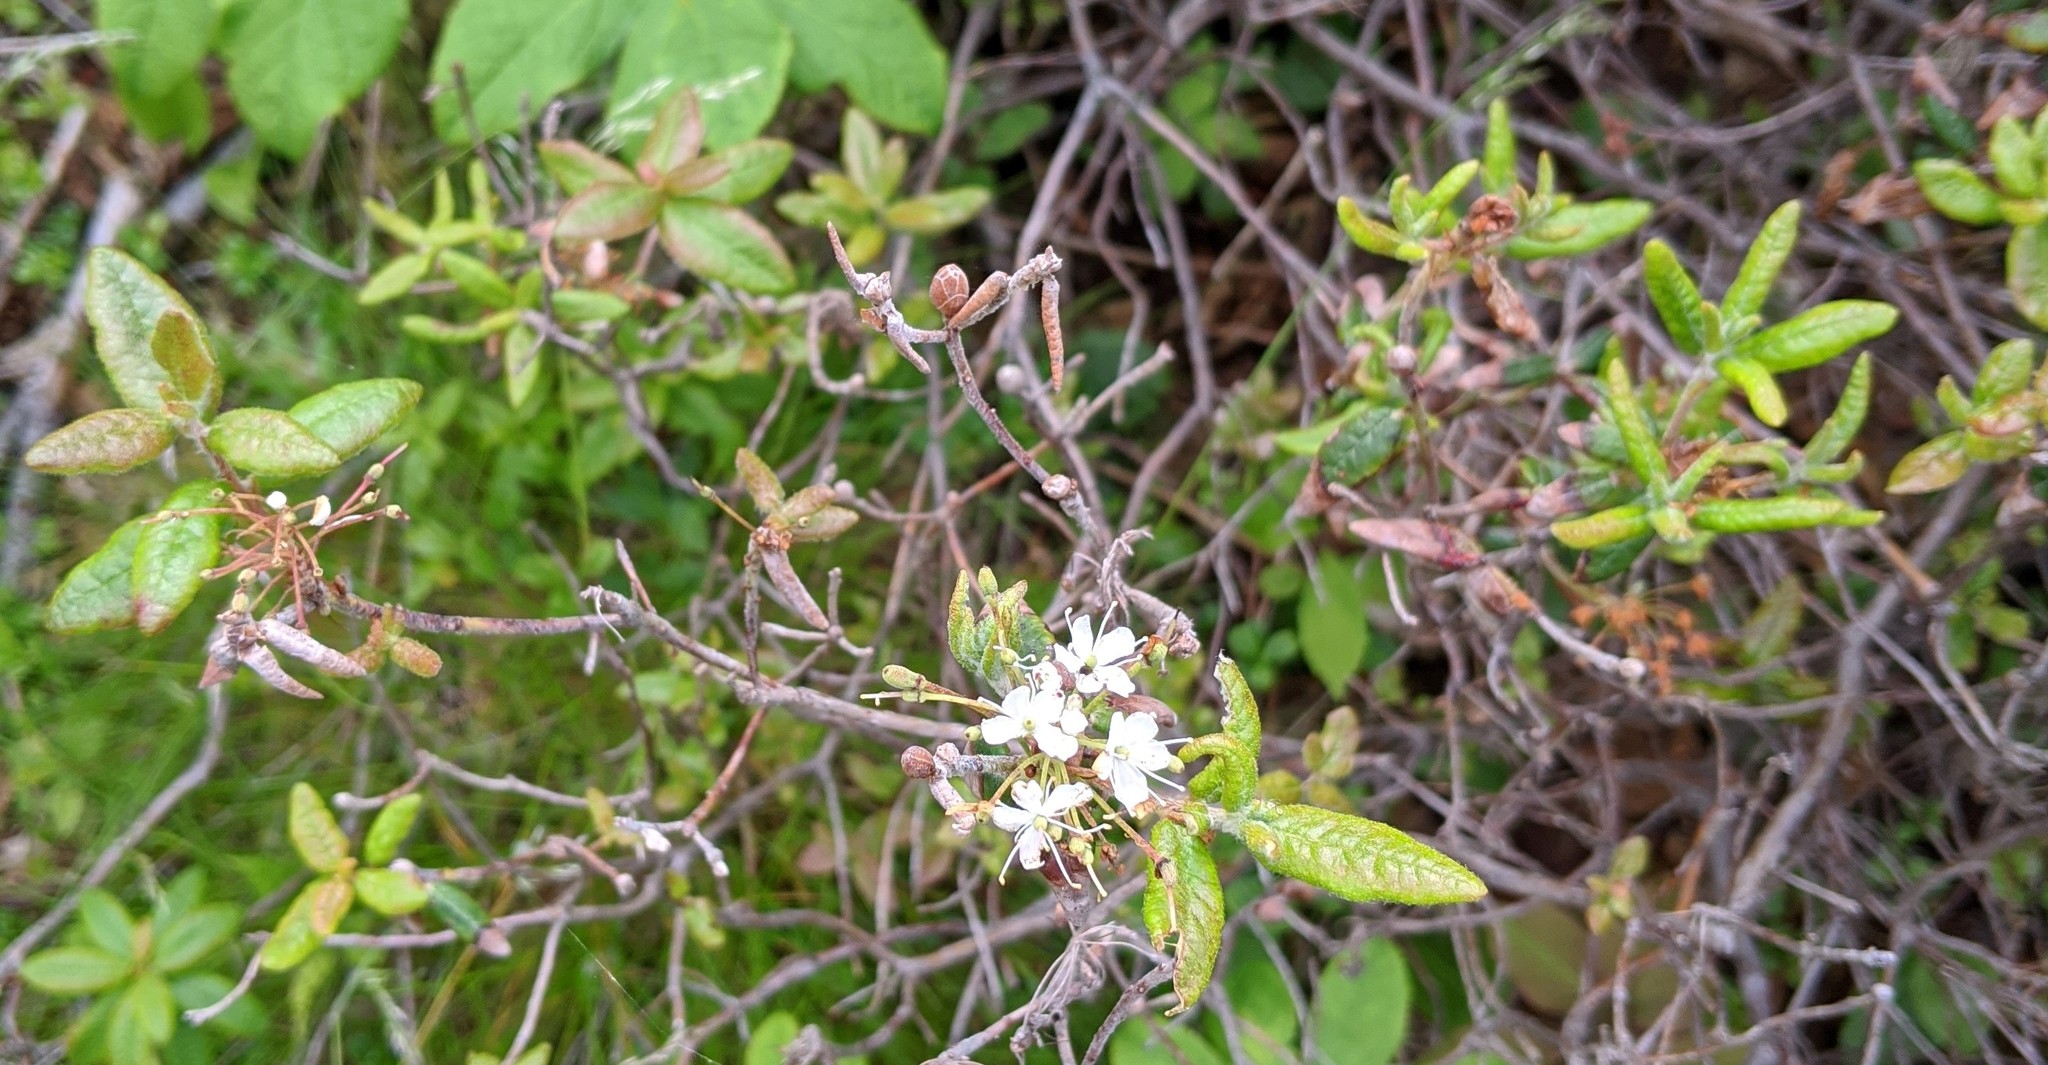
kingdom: Plantae
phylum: Tracheophyta
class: Magnoliopsida
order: Ericales
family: Ericaceae
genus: Rhododendron
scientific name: Rhododendron groenlandicum
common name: Bog labrador tea
